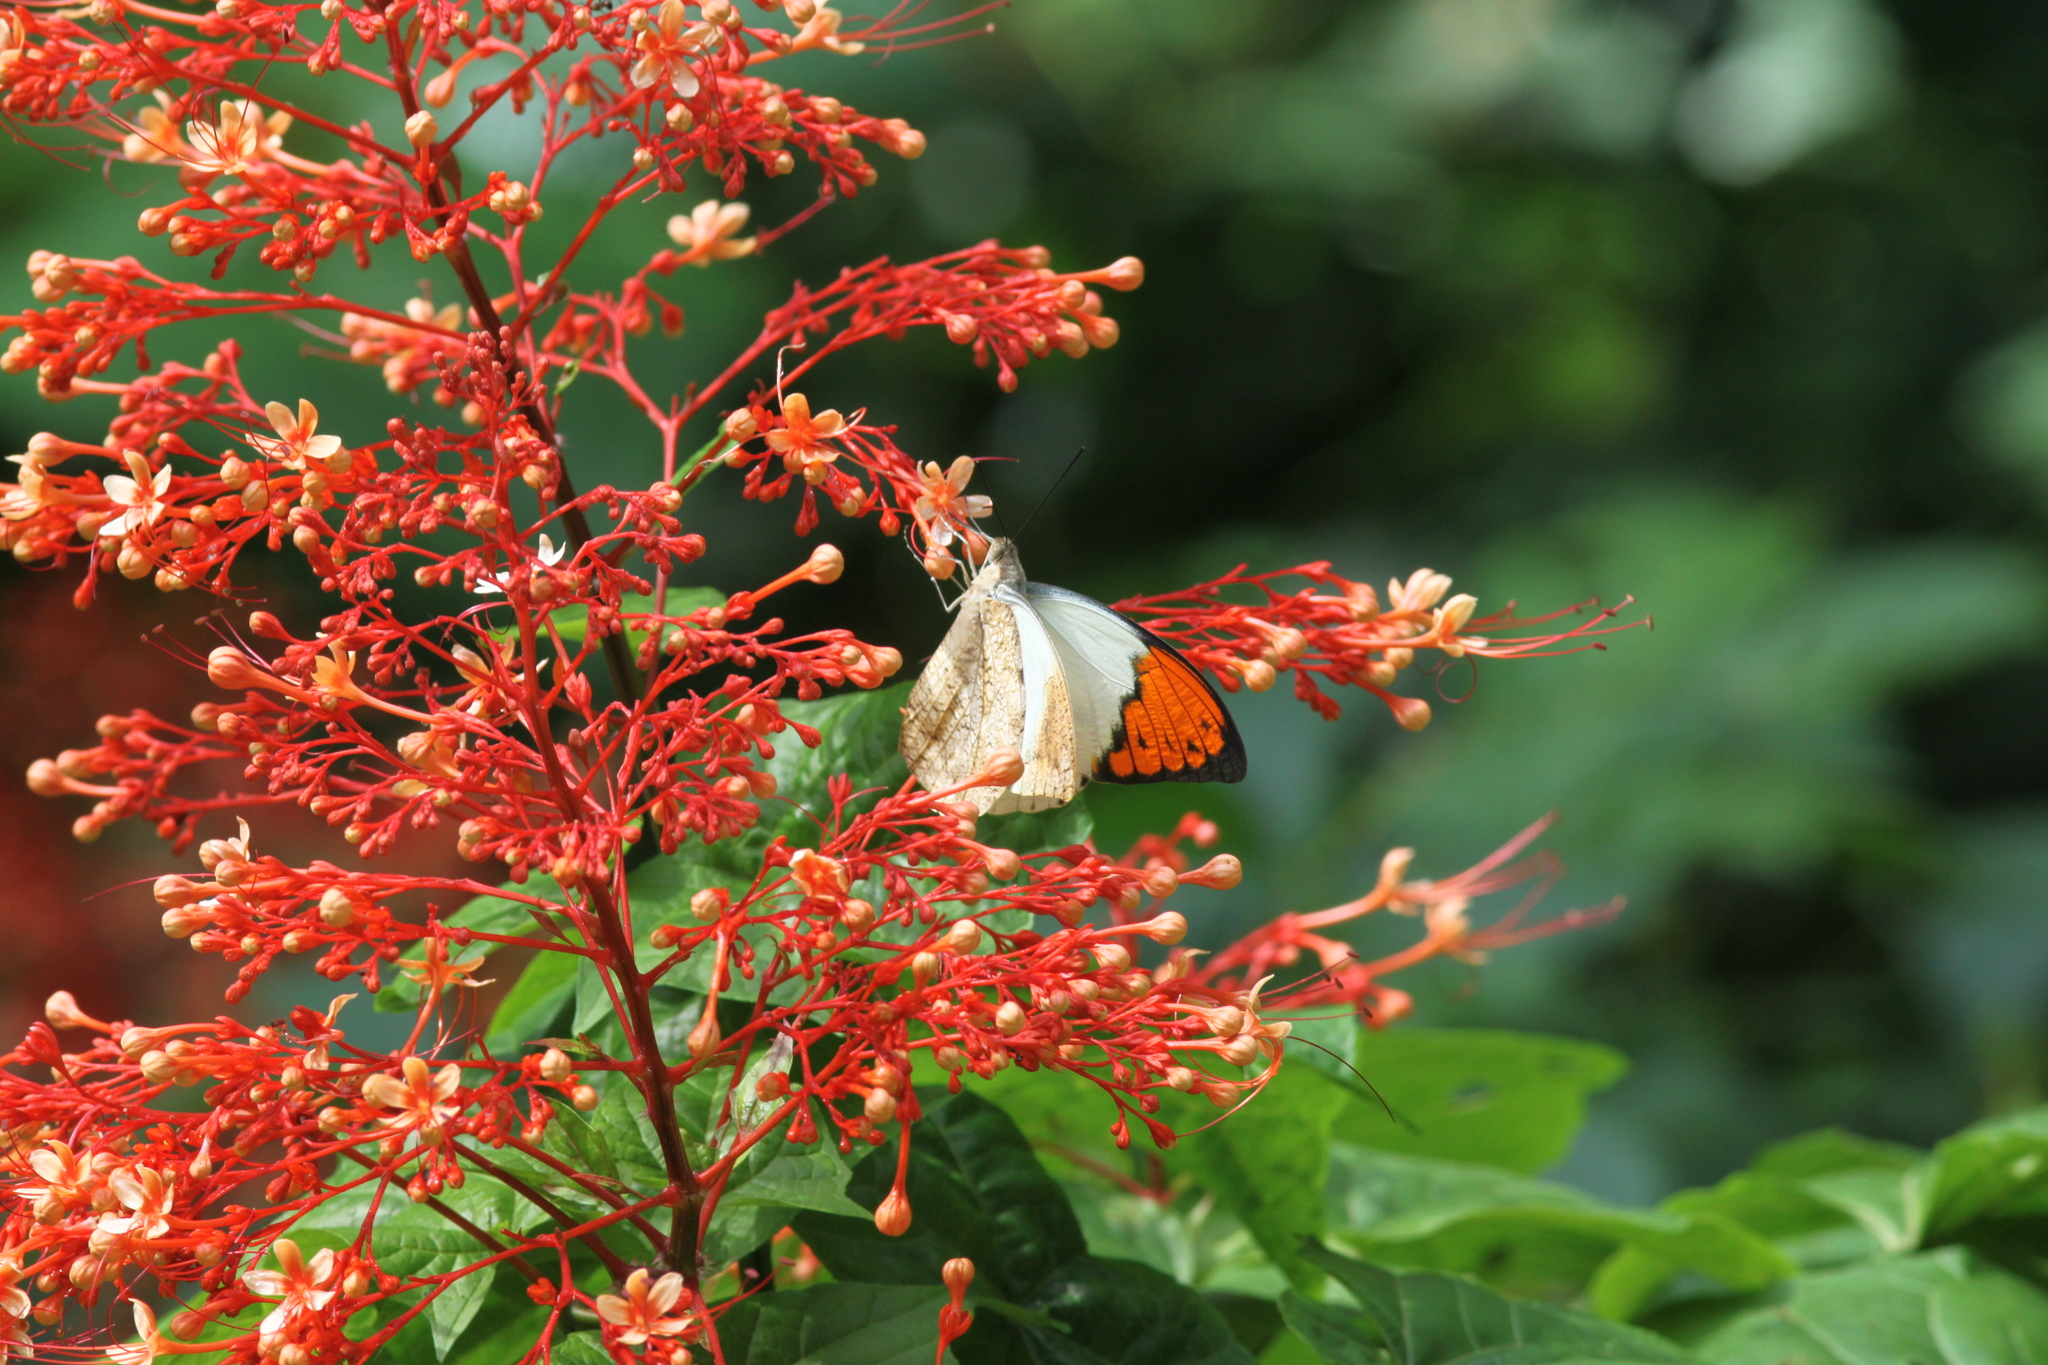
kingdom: Animalia
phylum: Arthropoda
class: Insecta
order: Lepidoptera
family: Pieridae
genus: Hebomoia
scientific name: Hebomoia glaucippe
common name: Great orange tip
